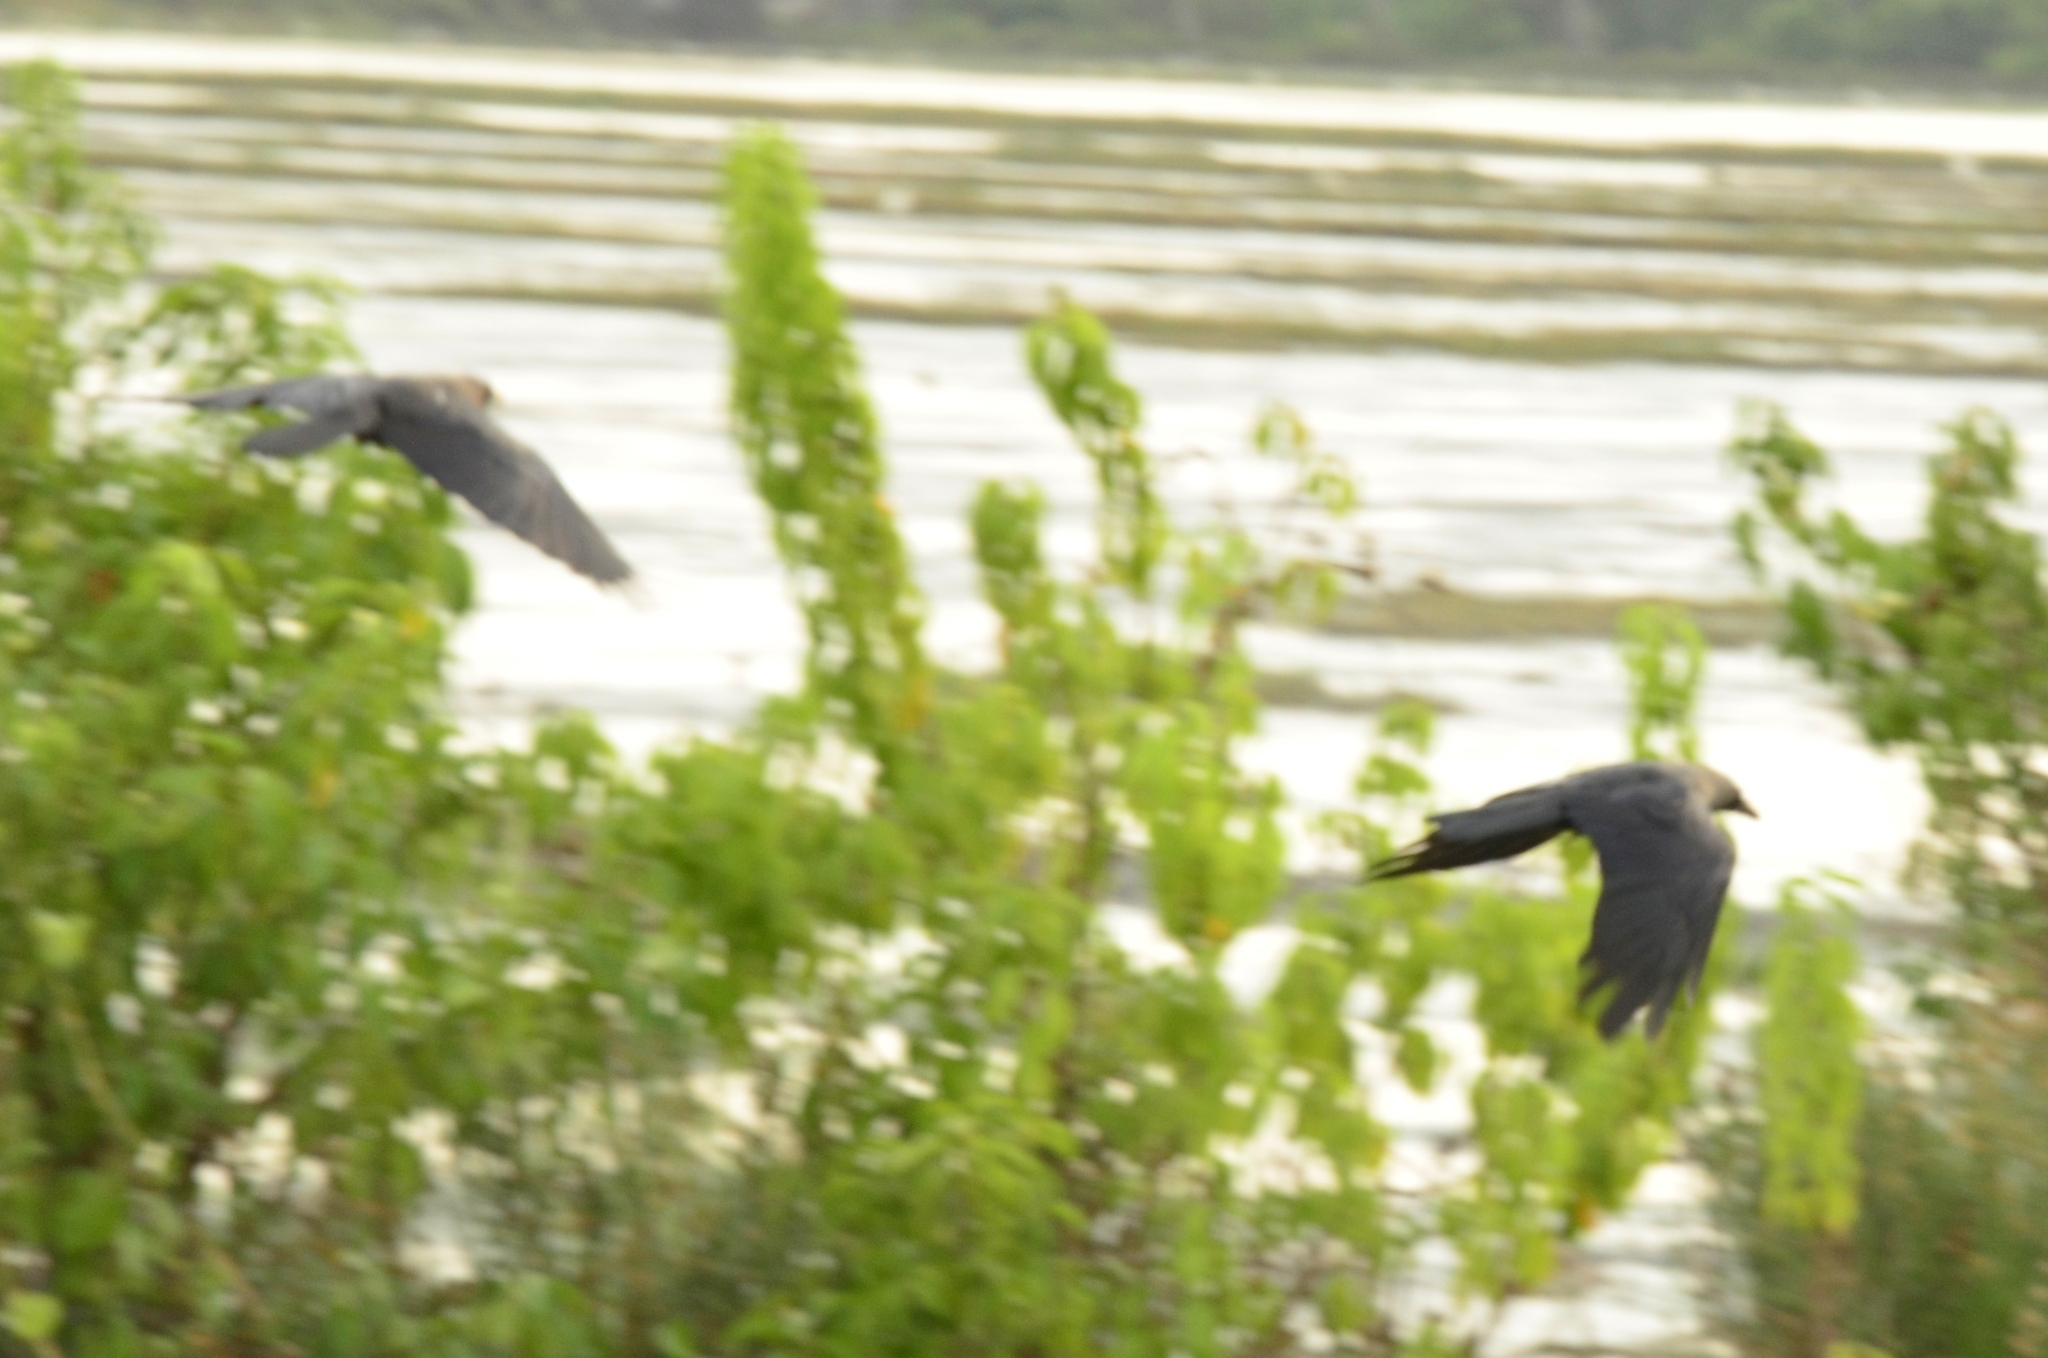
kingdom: Animalia
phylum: Chordata
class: Aves
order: Passeriformes
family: Corvidae
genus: Corvus
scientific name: Corvus splendens
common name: House crow
